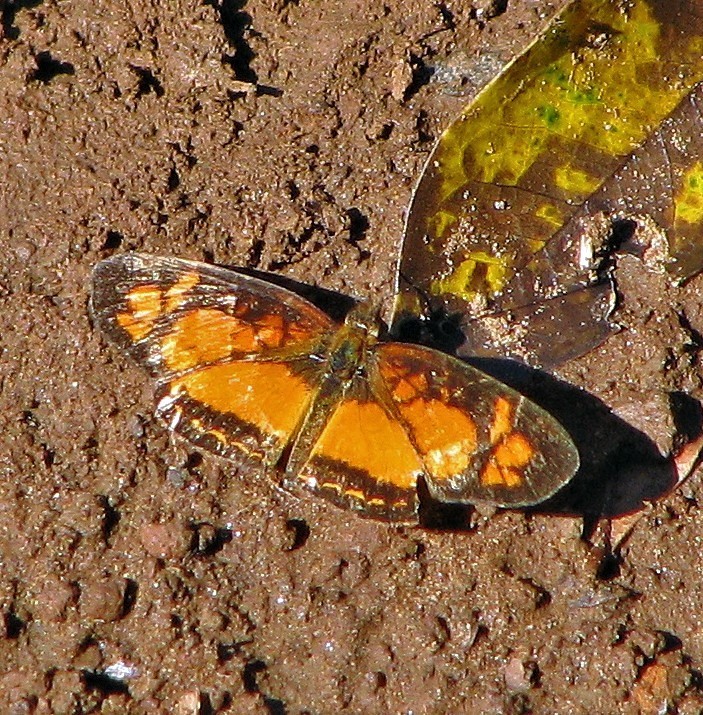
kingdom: Animalia
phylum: Arthropoda
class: Insecta
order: Lepidoptera
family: Nymphalidae
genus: Ortilia
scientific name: Ortilia dicoma
